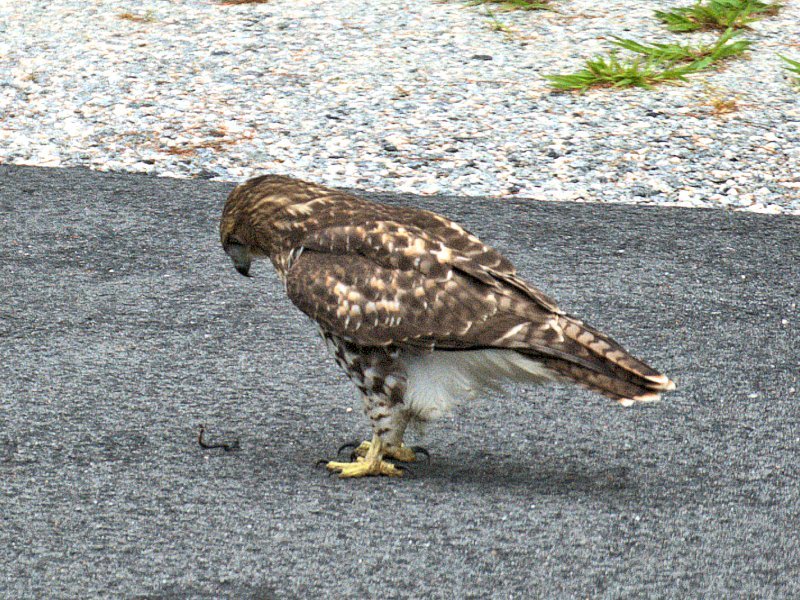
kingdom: Animalia
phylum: Chordata
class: Aves
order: Accipitriformes
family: Accipitridae
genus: Buteo
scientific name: Buteo jamaicensis
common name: Red-tailed hawk
